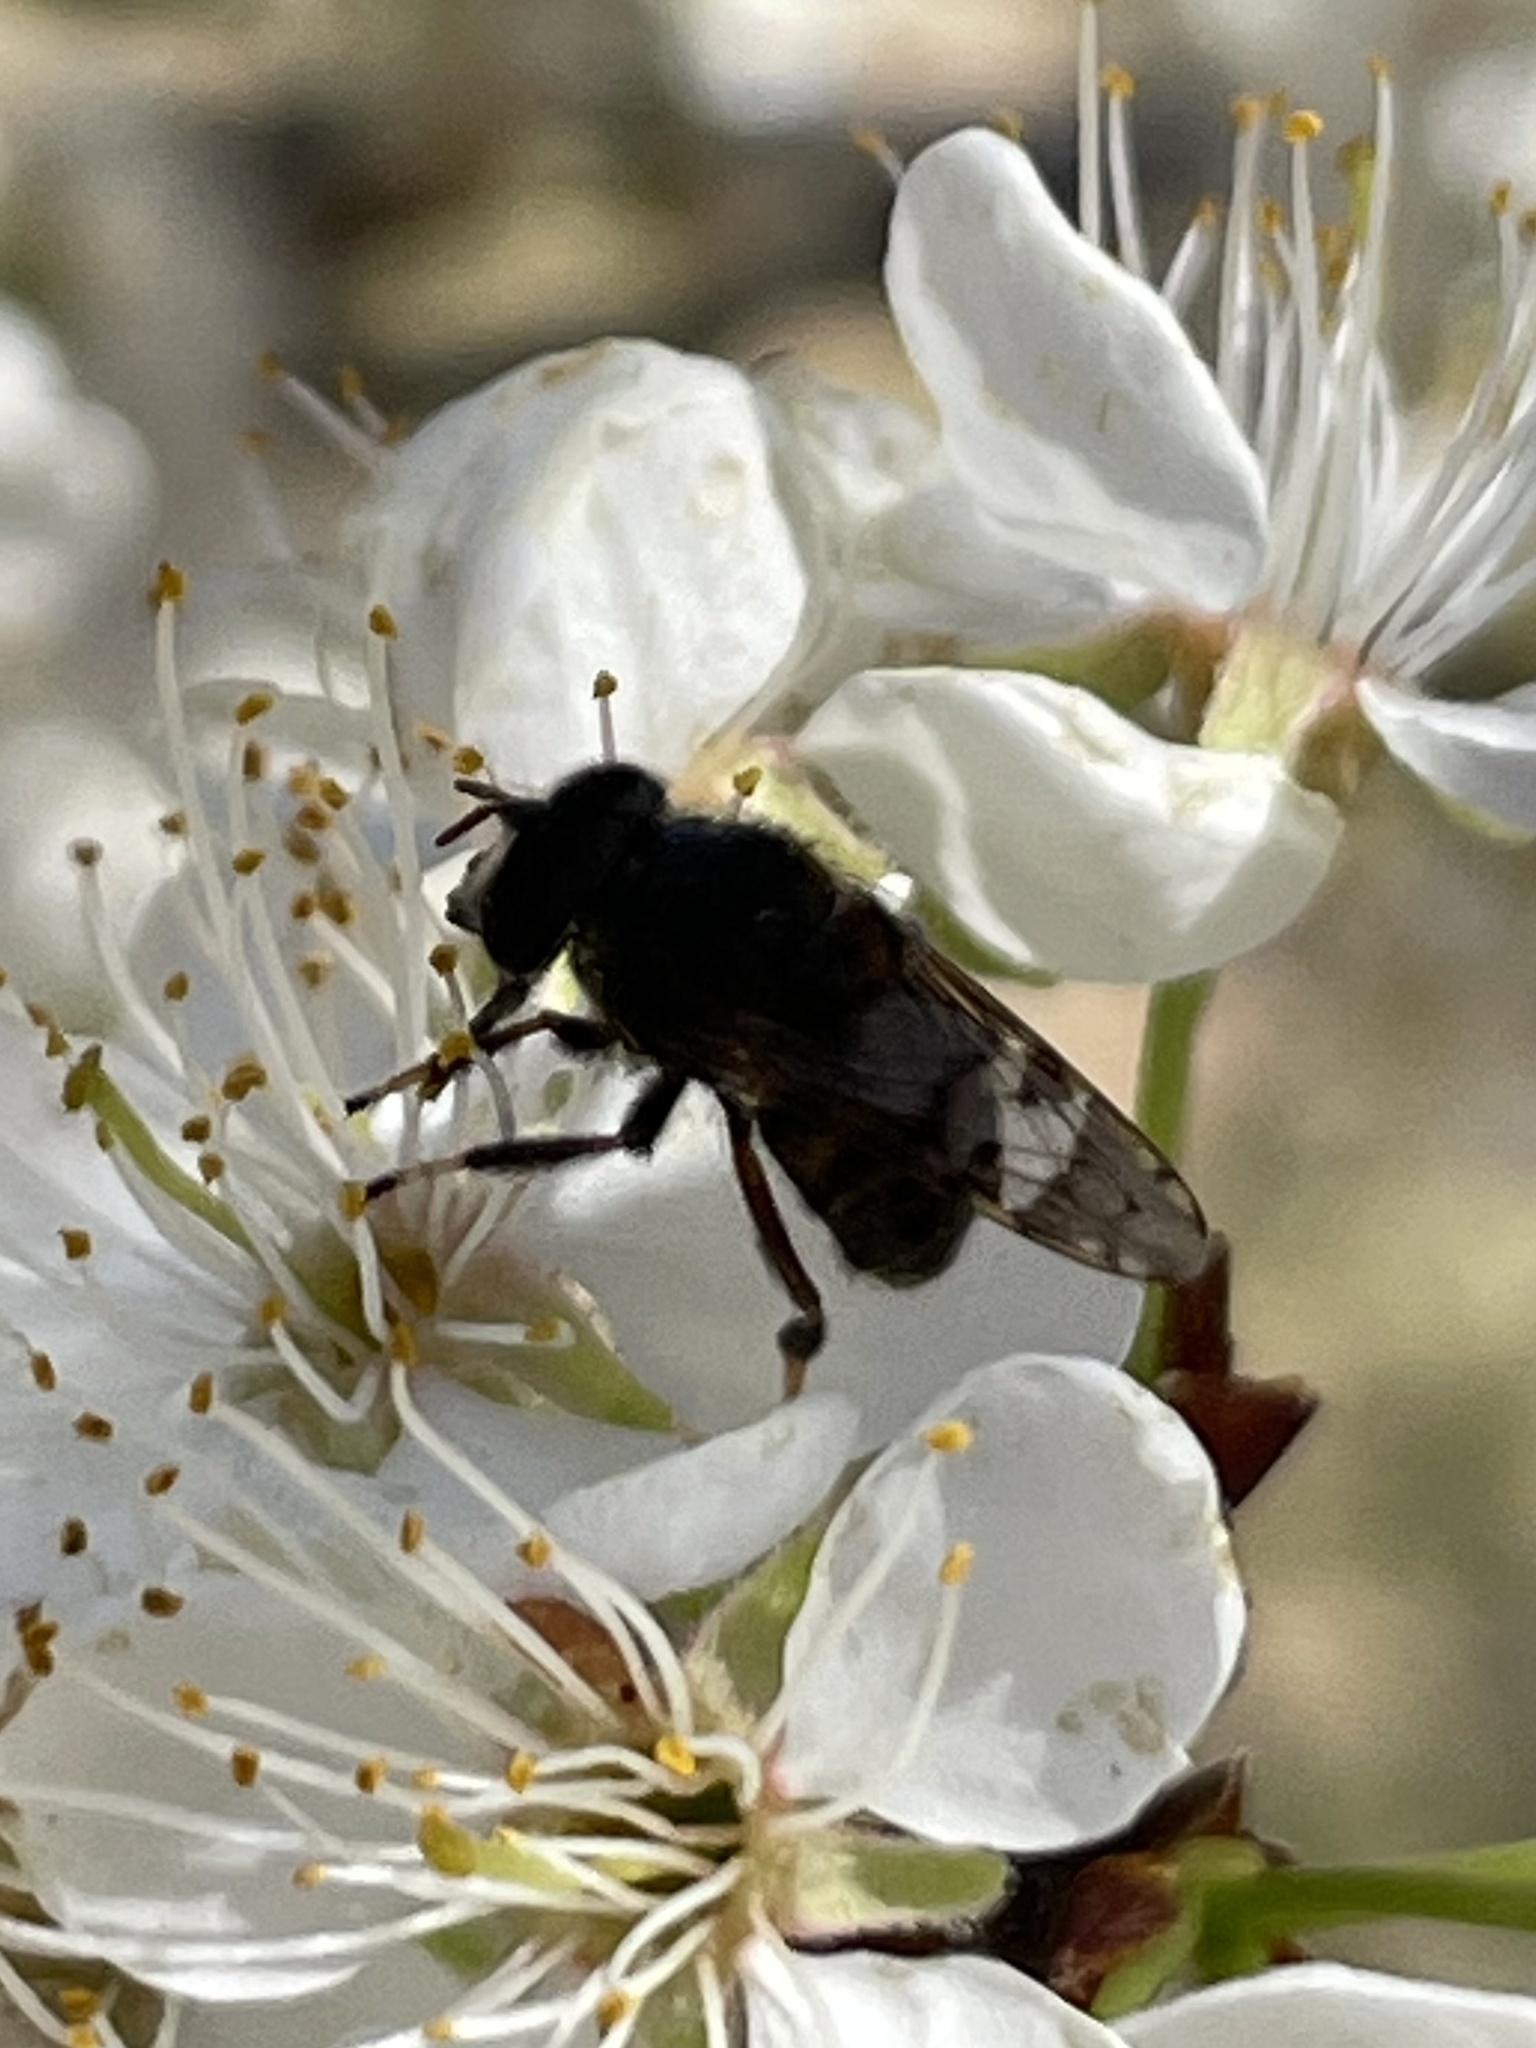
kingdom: Animalia
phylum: Arthropoda
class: Insecta
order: Diptera
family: Syrphidae
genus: Copestylum
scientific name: Copestylum tamaulipanum
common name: Syrphid fly
